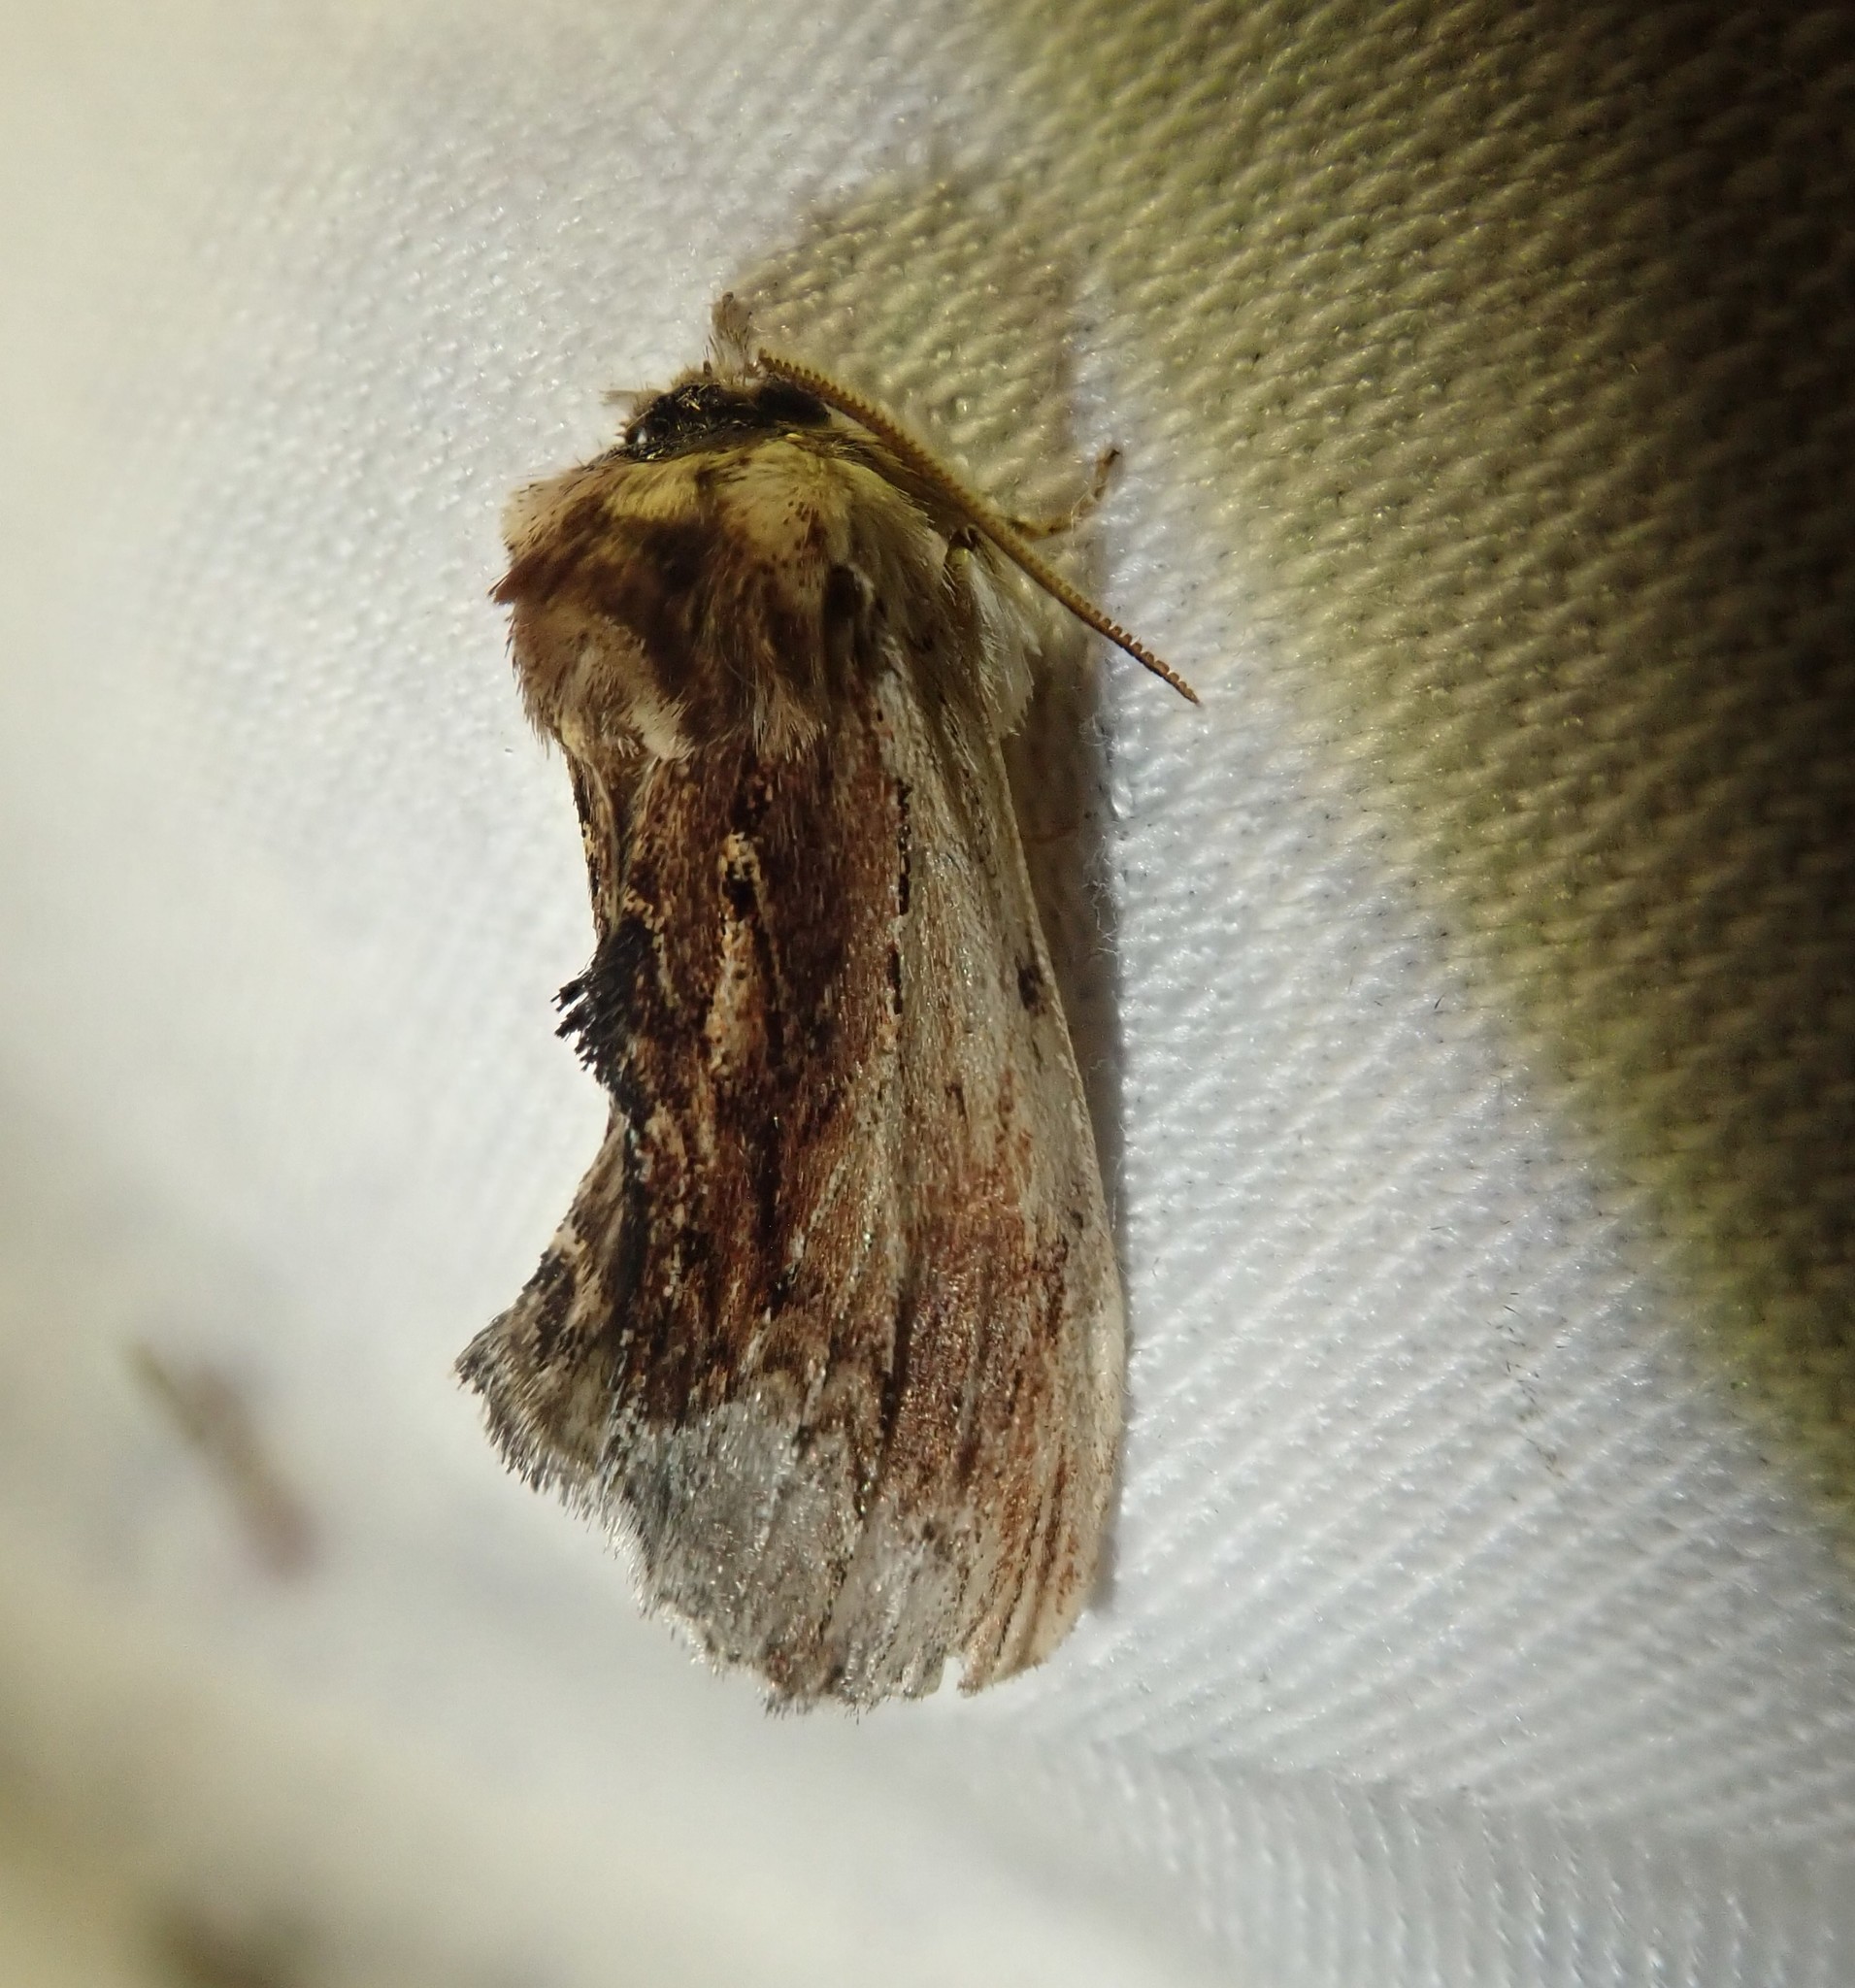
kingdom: Animalia
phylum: Arthropoda
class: Insecta
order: Lepidoptera
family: Notodontidae
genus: Ptilodon
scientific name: Ptilodon cucullina
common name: Maple prominent
